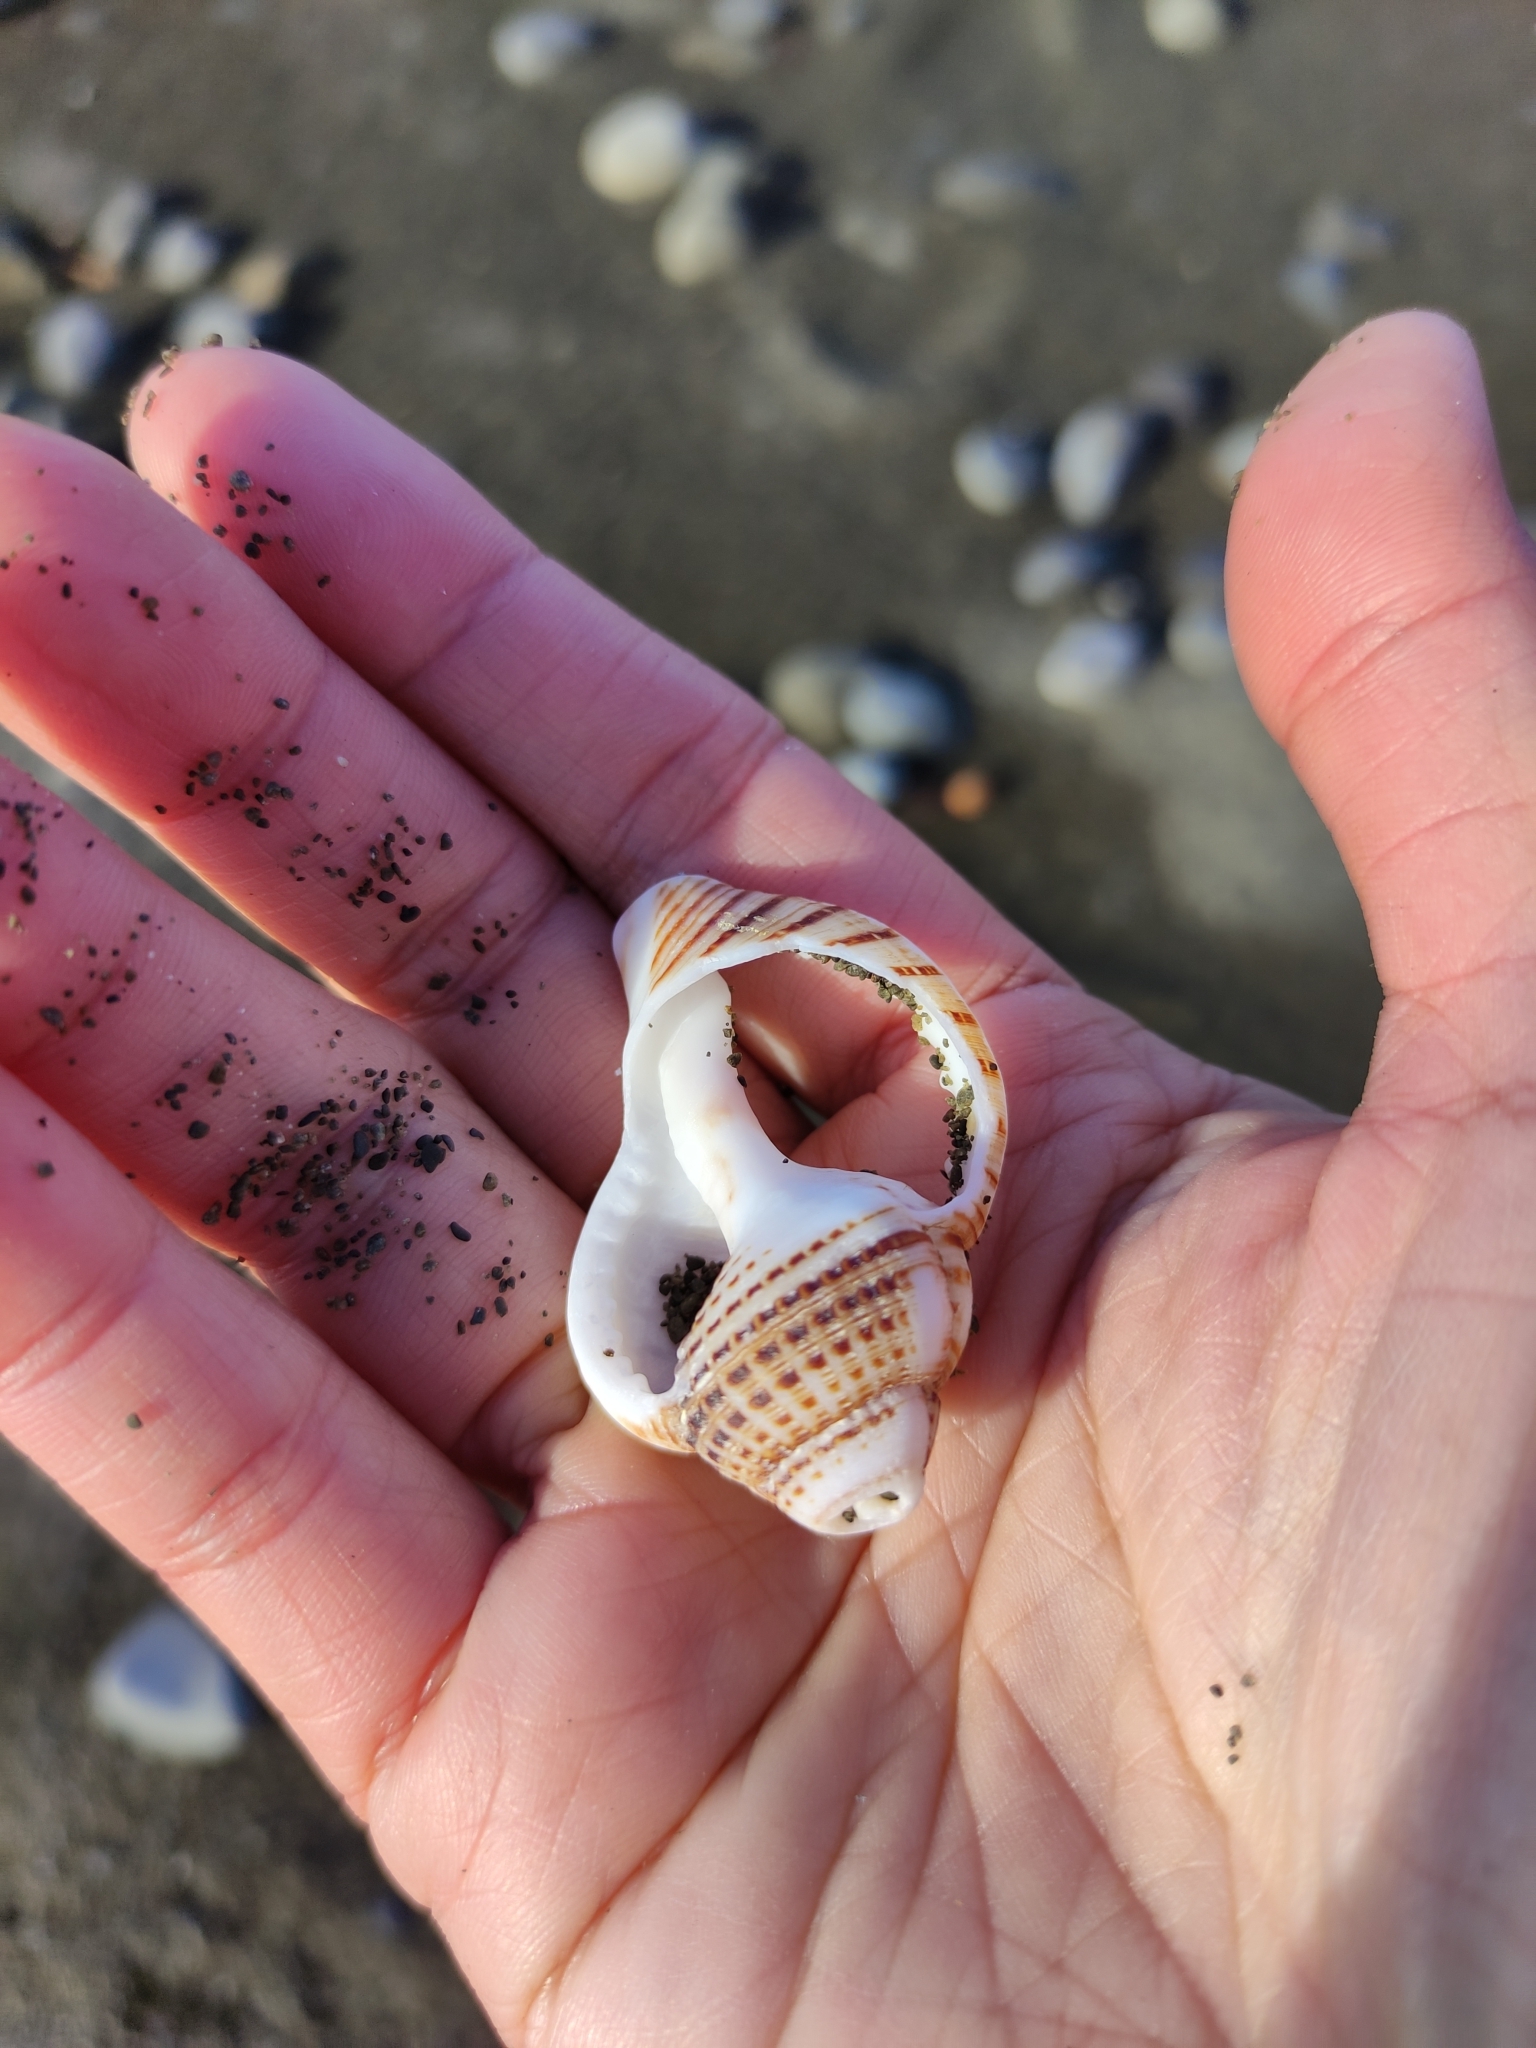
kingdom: Animalia
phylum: Mollusca
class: Gastropoda
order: Littorinimorpha
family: Cymatiidae
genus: Argobuccinum
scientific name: Argobuccinum pustulosum
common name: Pustular triton
